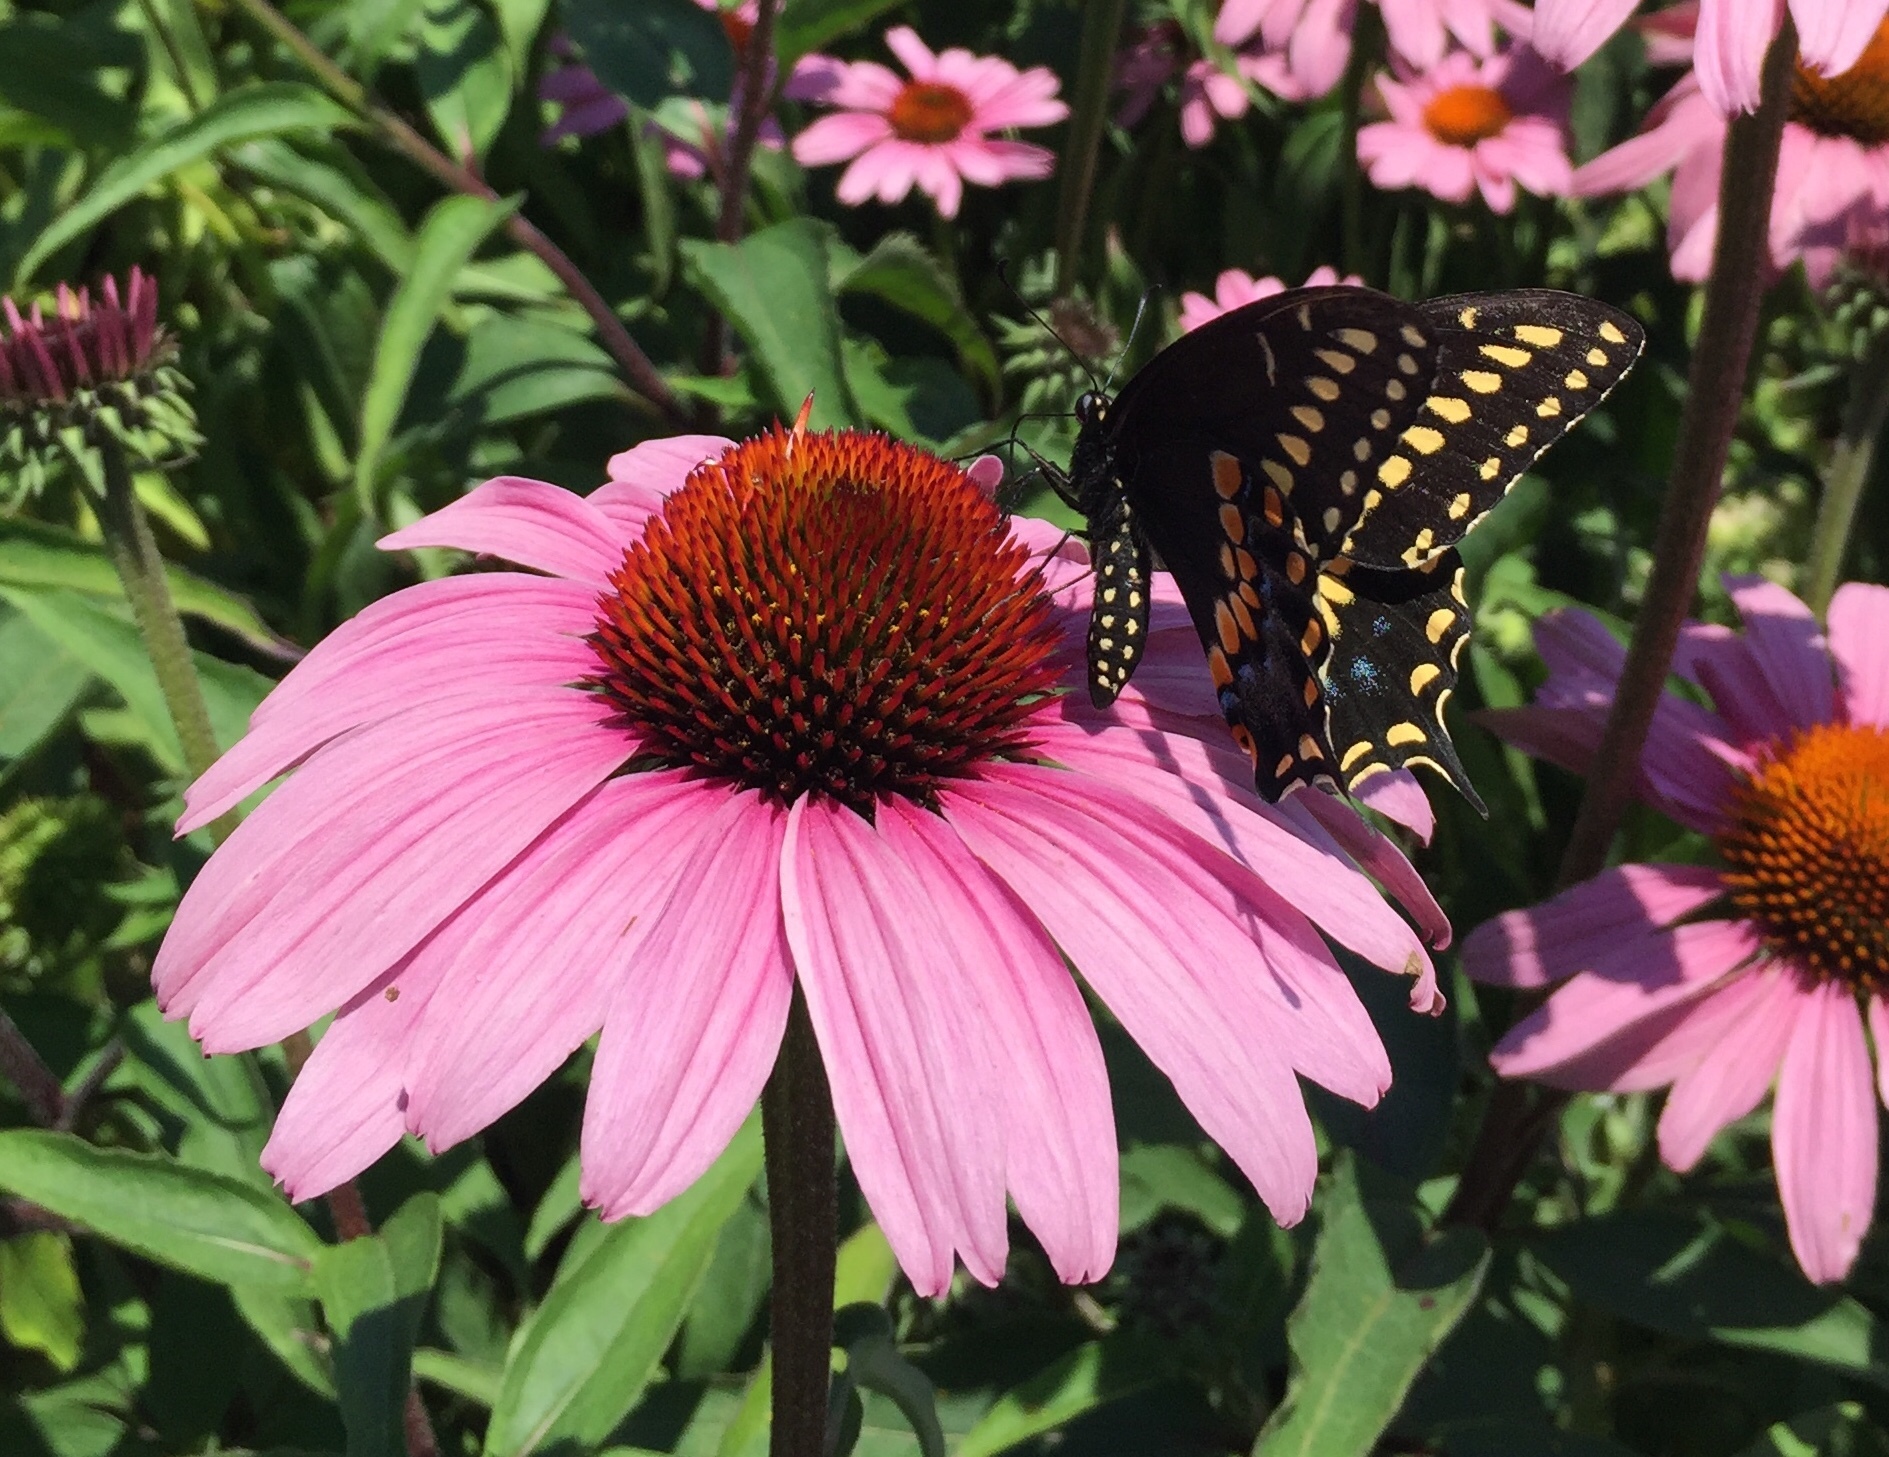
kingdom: Animalia
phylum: Arthropoda
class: Insecta
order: Lepidoptera
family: Papilionidae
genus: Papilio
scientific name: Papilio polyxenes
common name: Black swallowtail
